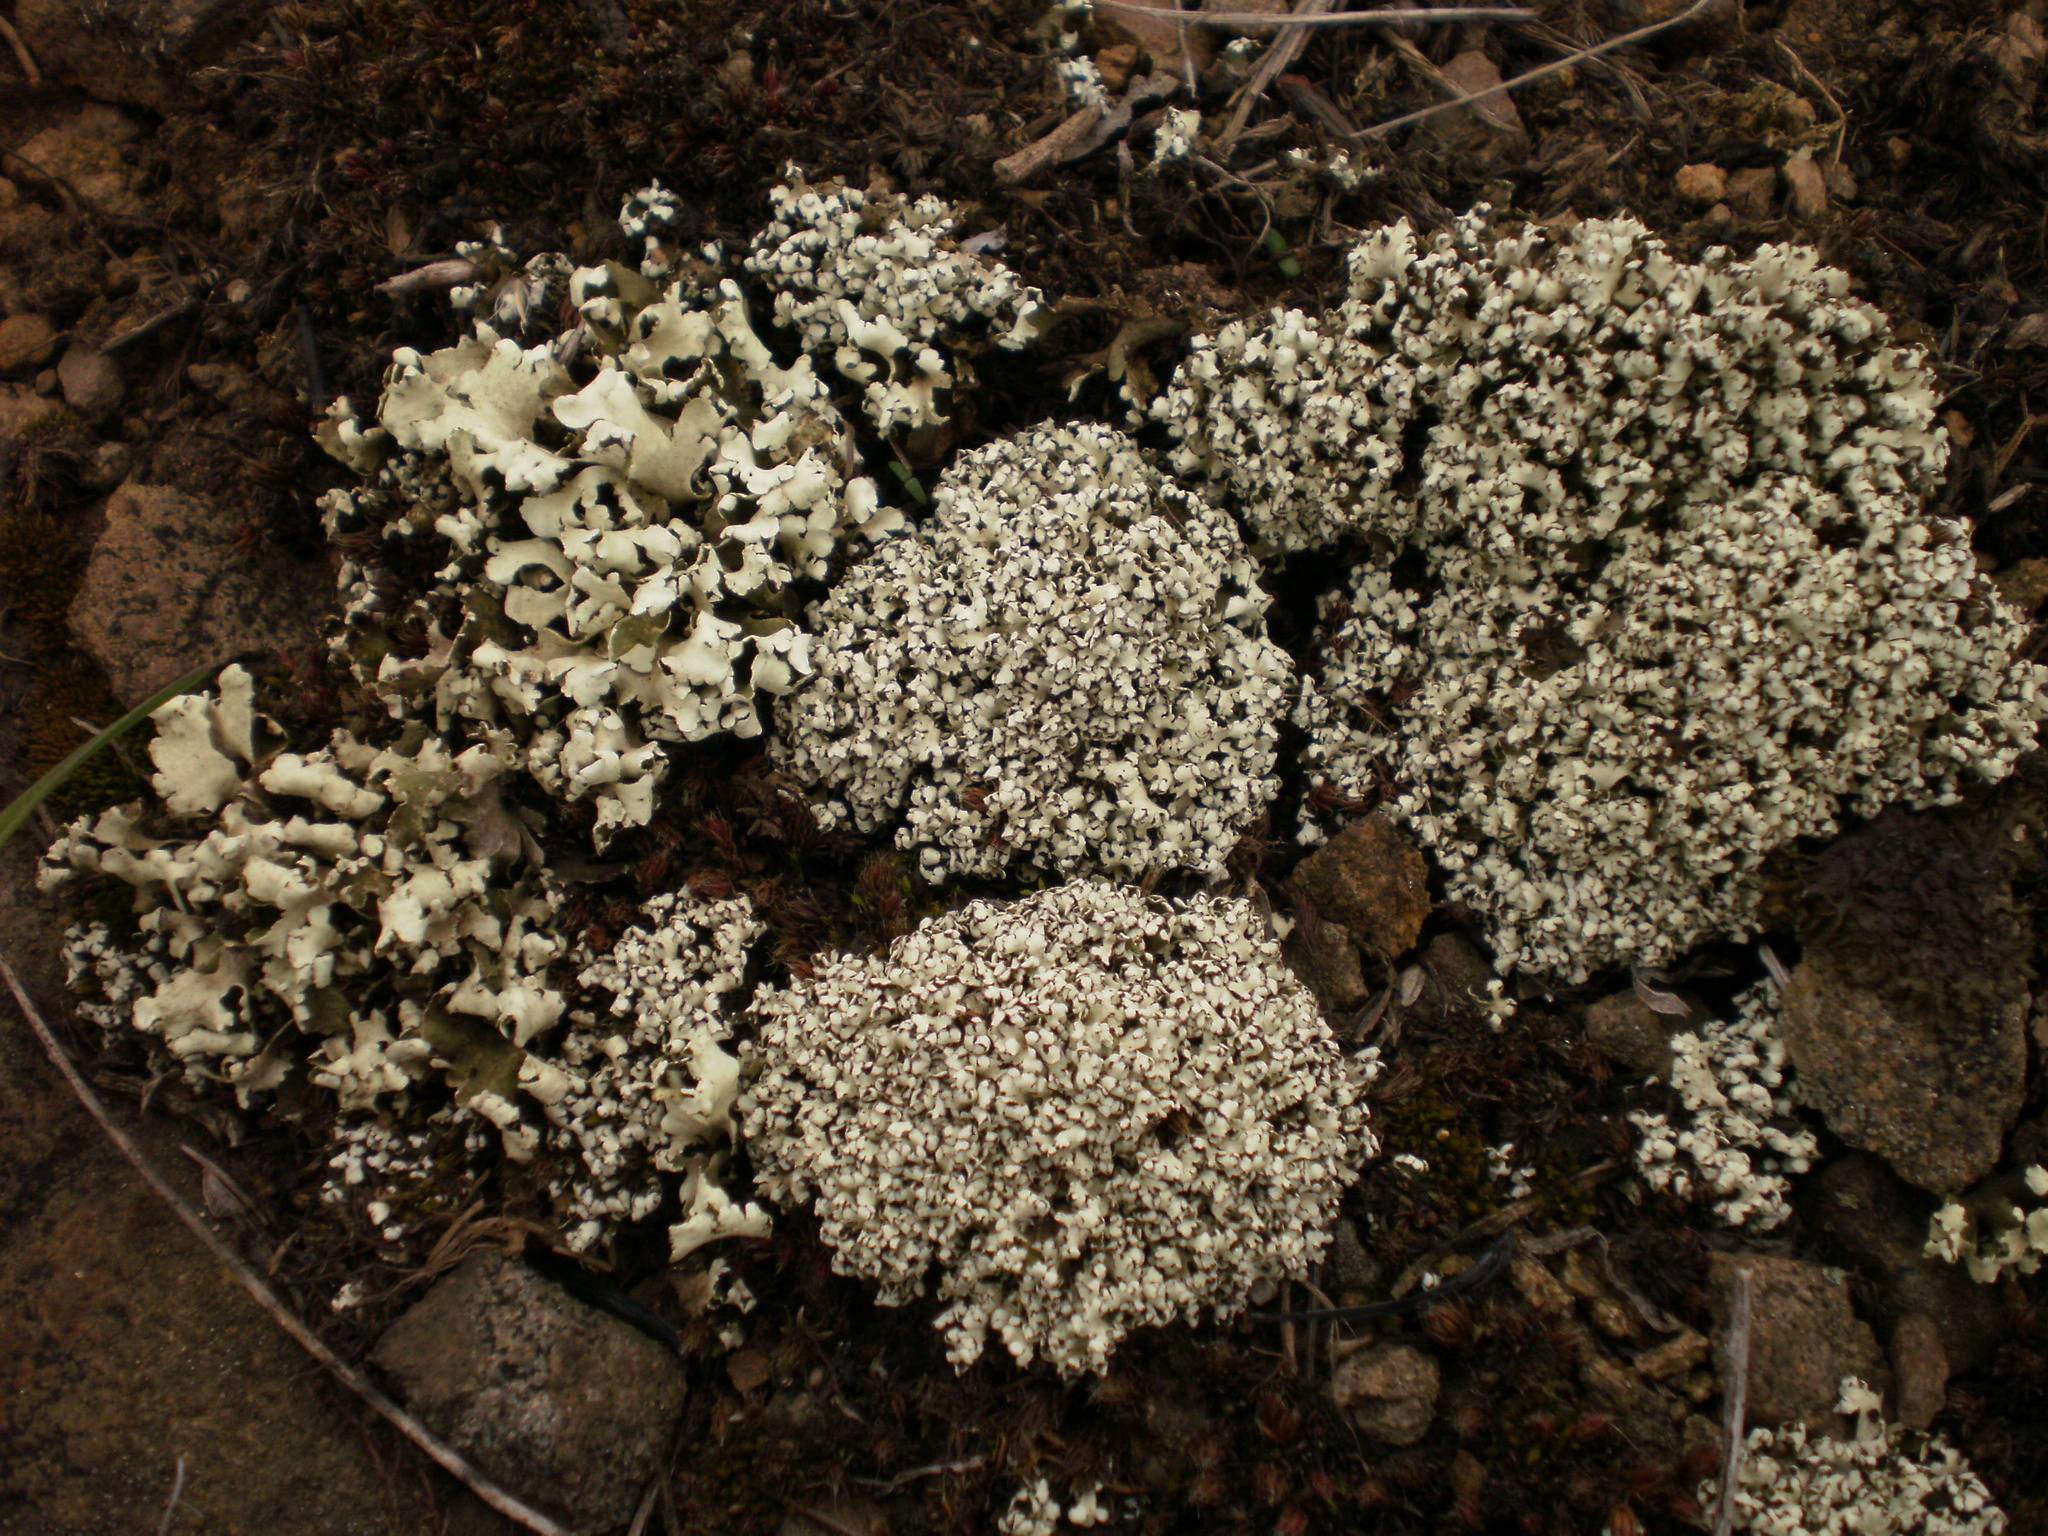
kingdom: Fungi
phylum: Ascomycota
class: Lecanoromycetes
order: Lecanorales
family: Cladoniaceae
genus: Cladonia
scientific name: Cladonia foliacea
